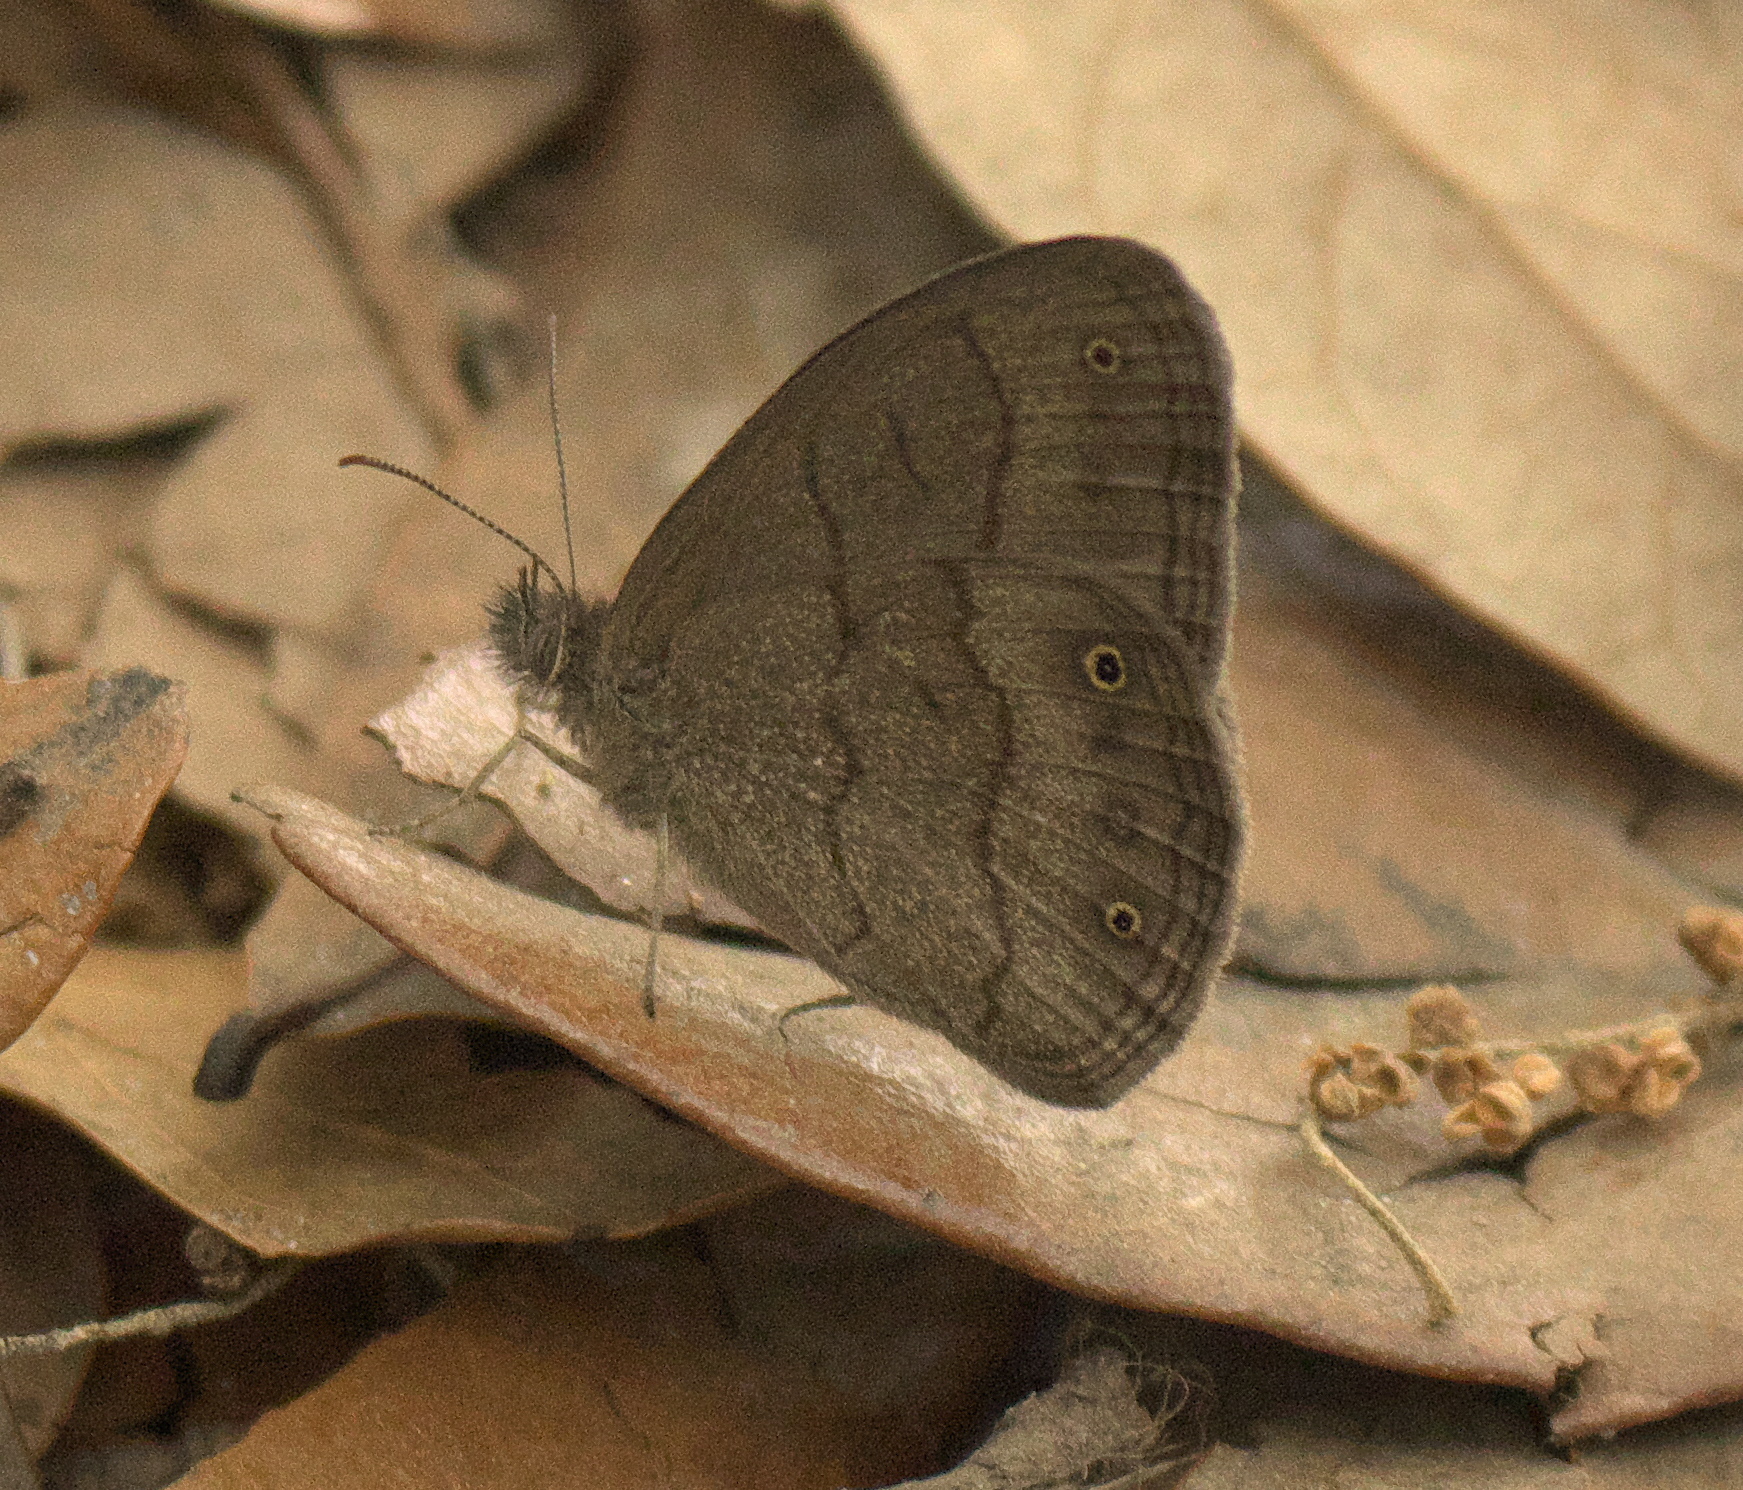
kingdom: Animalia
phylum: Arthropoda
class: Insecta
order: Lepidoptera
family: Nymphalidae
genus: Hermeuptychia
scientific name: Hermeuptychia hermes
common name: Hermes satyr
